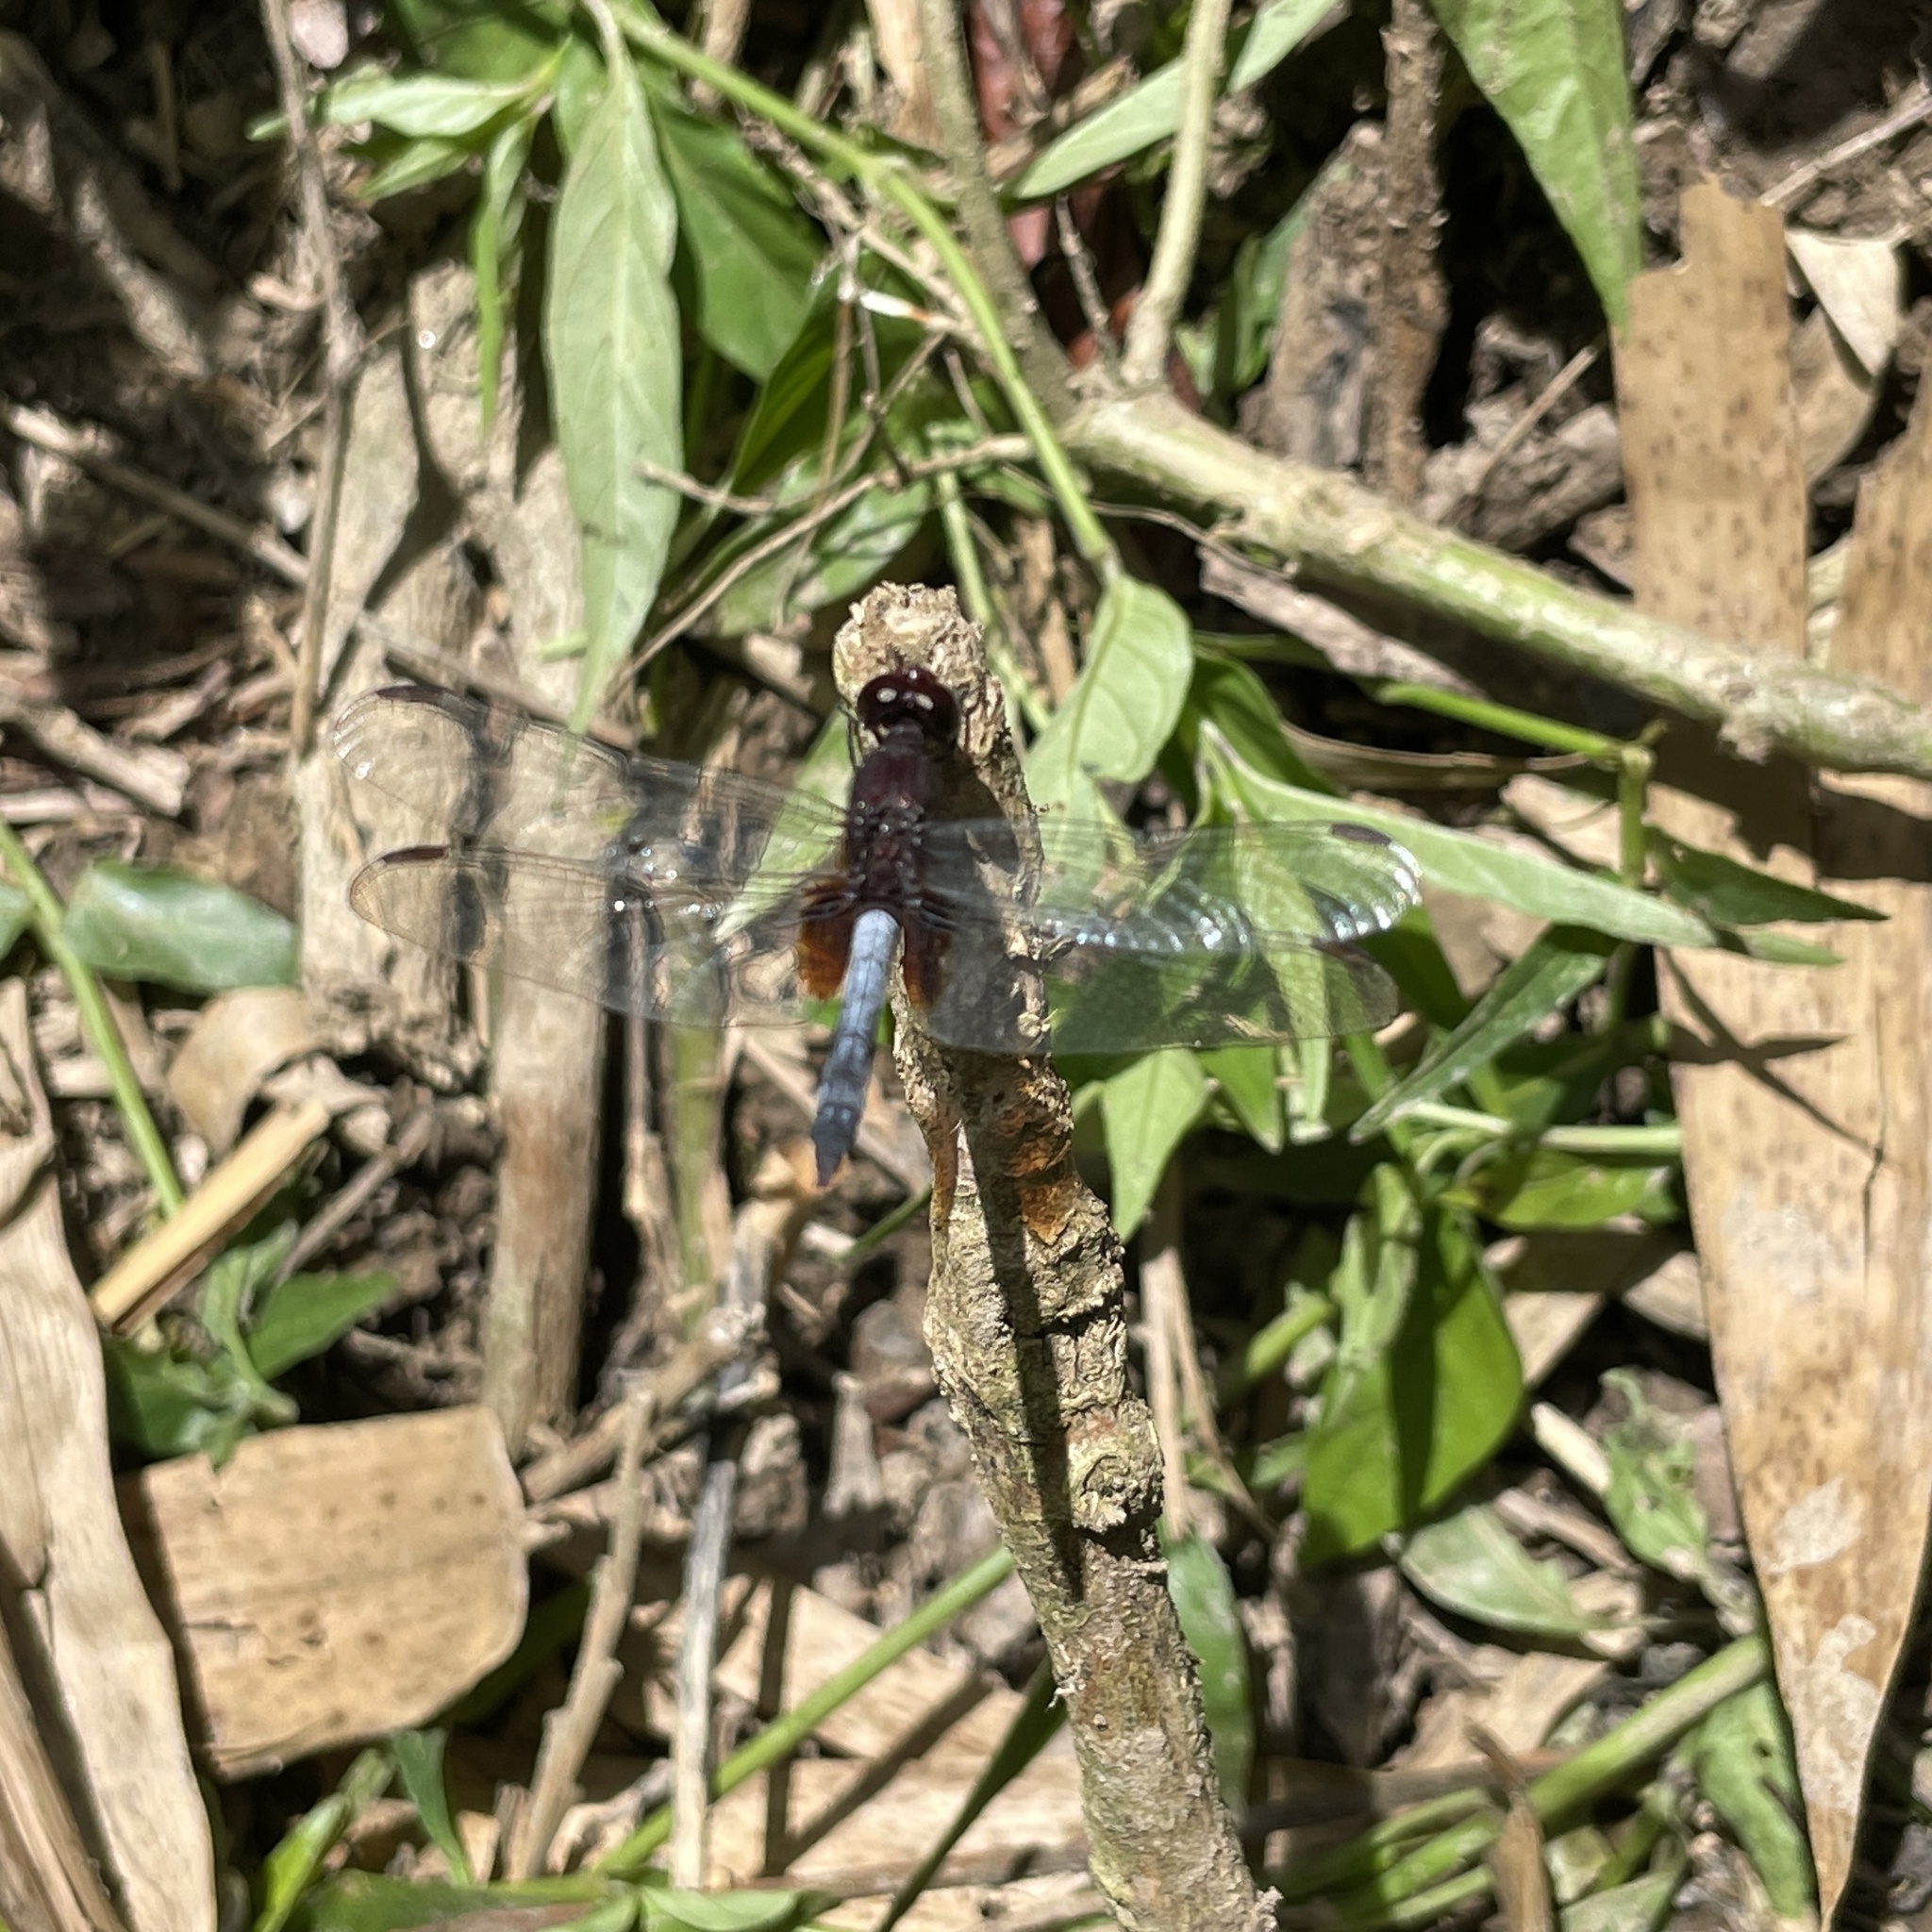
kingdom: Animalia
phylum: Arthropoda
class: Insecta
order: Odonata
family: Libellulidae
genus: Erythrodiplax
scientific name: Erythrodiplax fusca
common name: Red-faced dragonlet
